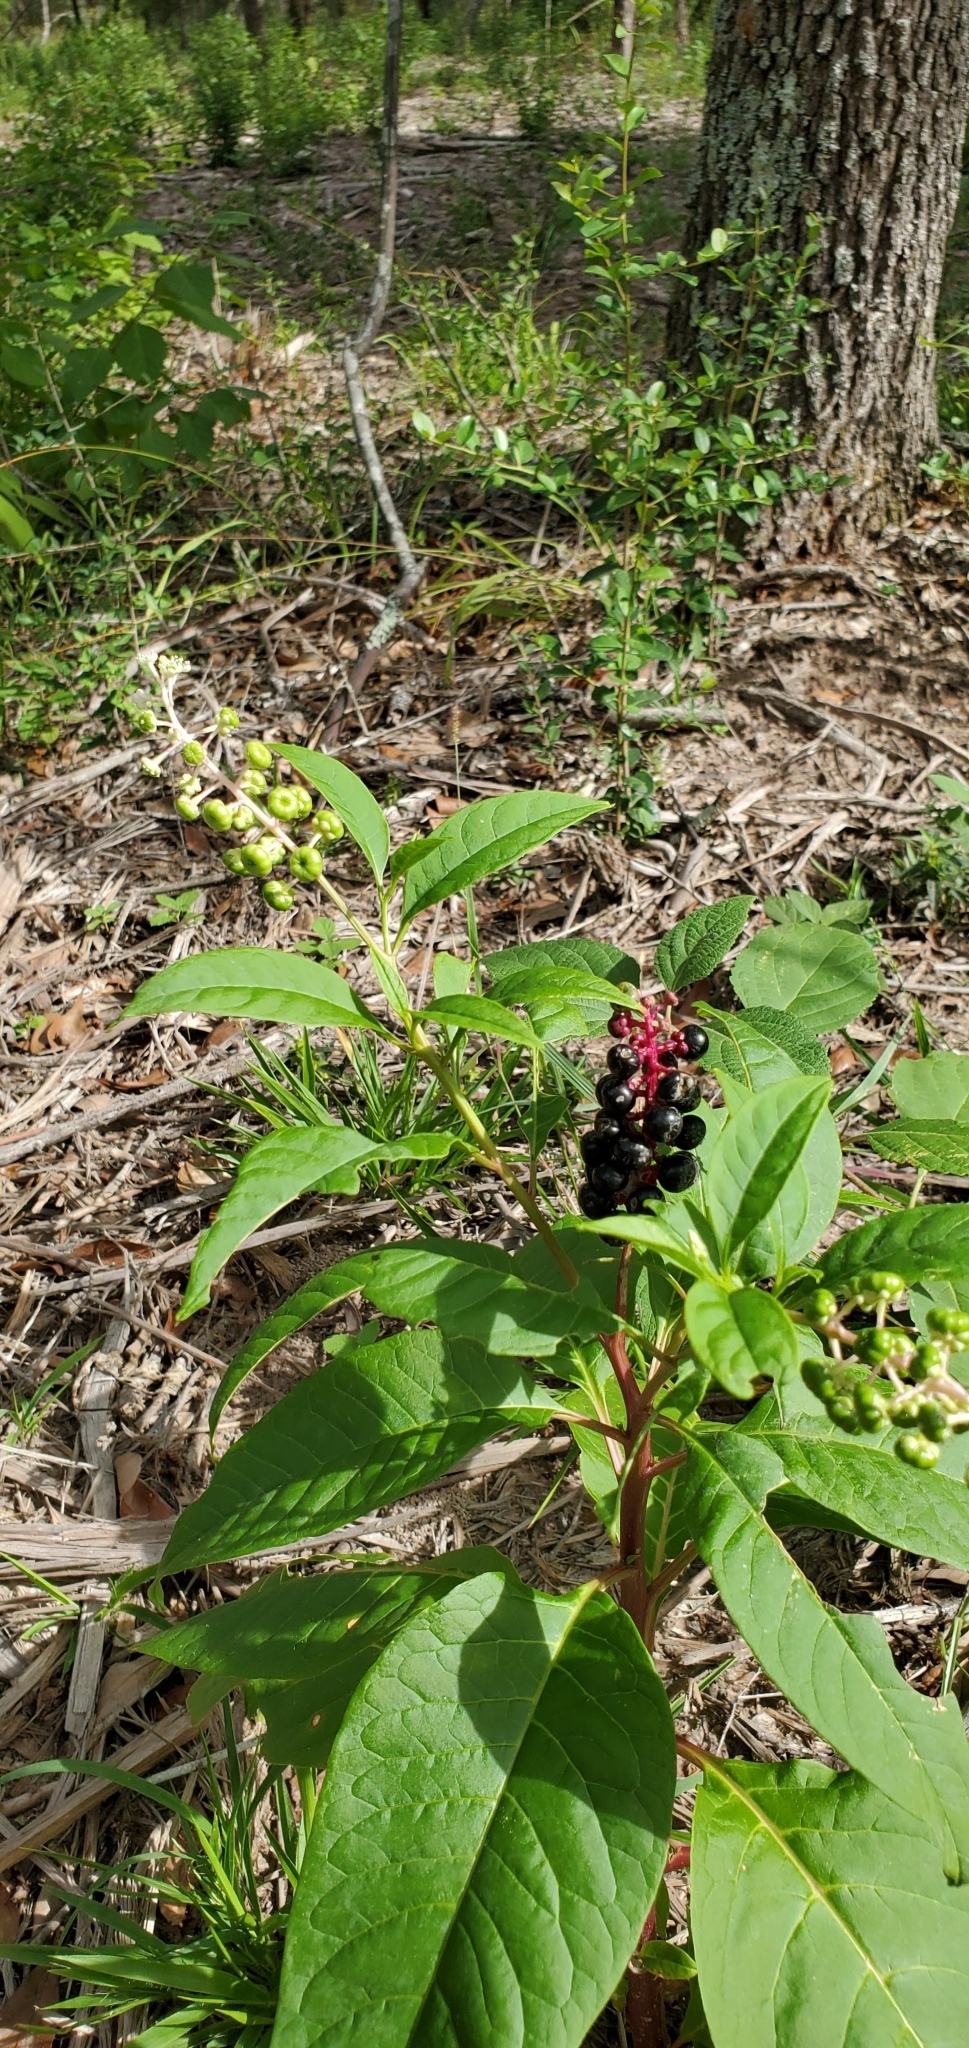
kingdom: Plantae
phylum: Tracheophyta
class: Magnoliopsida
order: Caryophyllales
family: Phytolaccaceae
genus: Phytolacca
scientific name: Phytolacca americana
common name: American pokeweed
